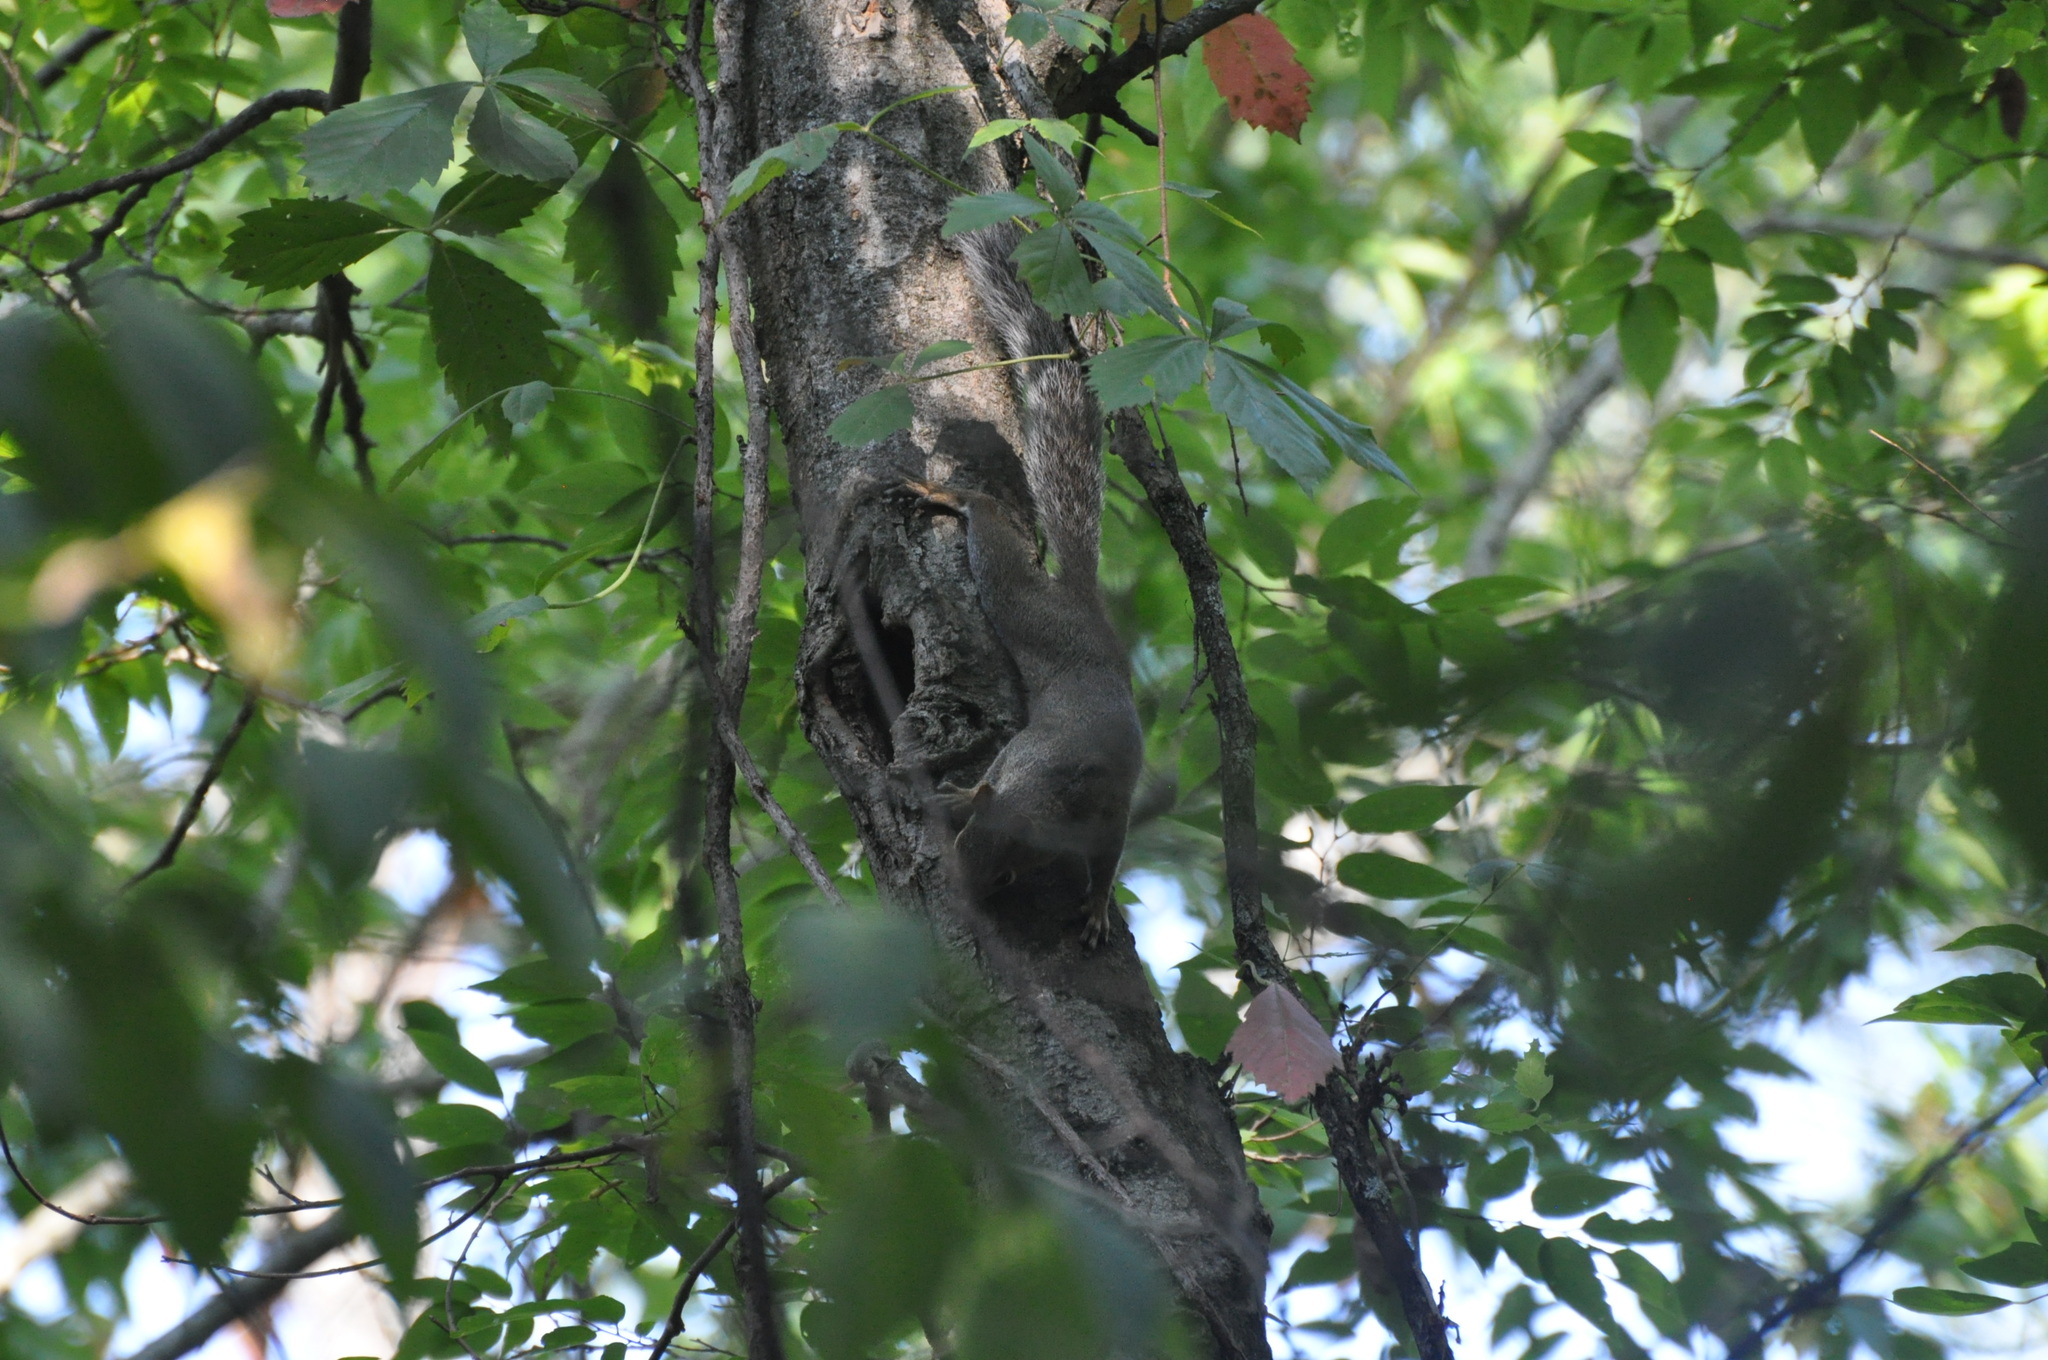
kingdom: Animalia
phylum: Chordata
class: Mammalia
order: Rodentia
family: Sciuridae
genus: Sciurus
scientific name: Sciurus carolinensis
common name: Eastern gray squirrel
